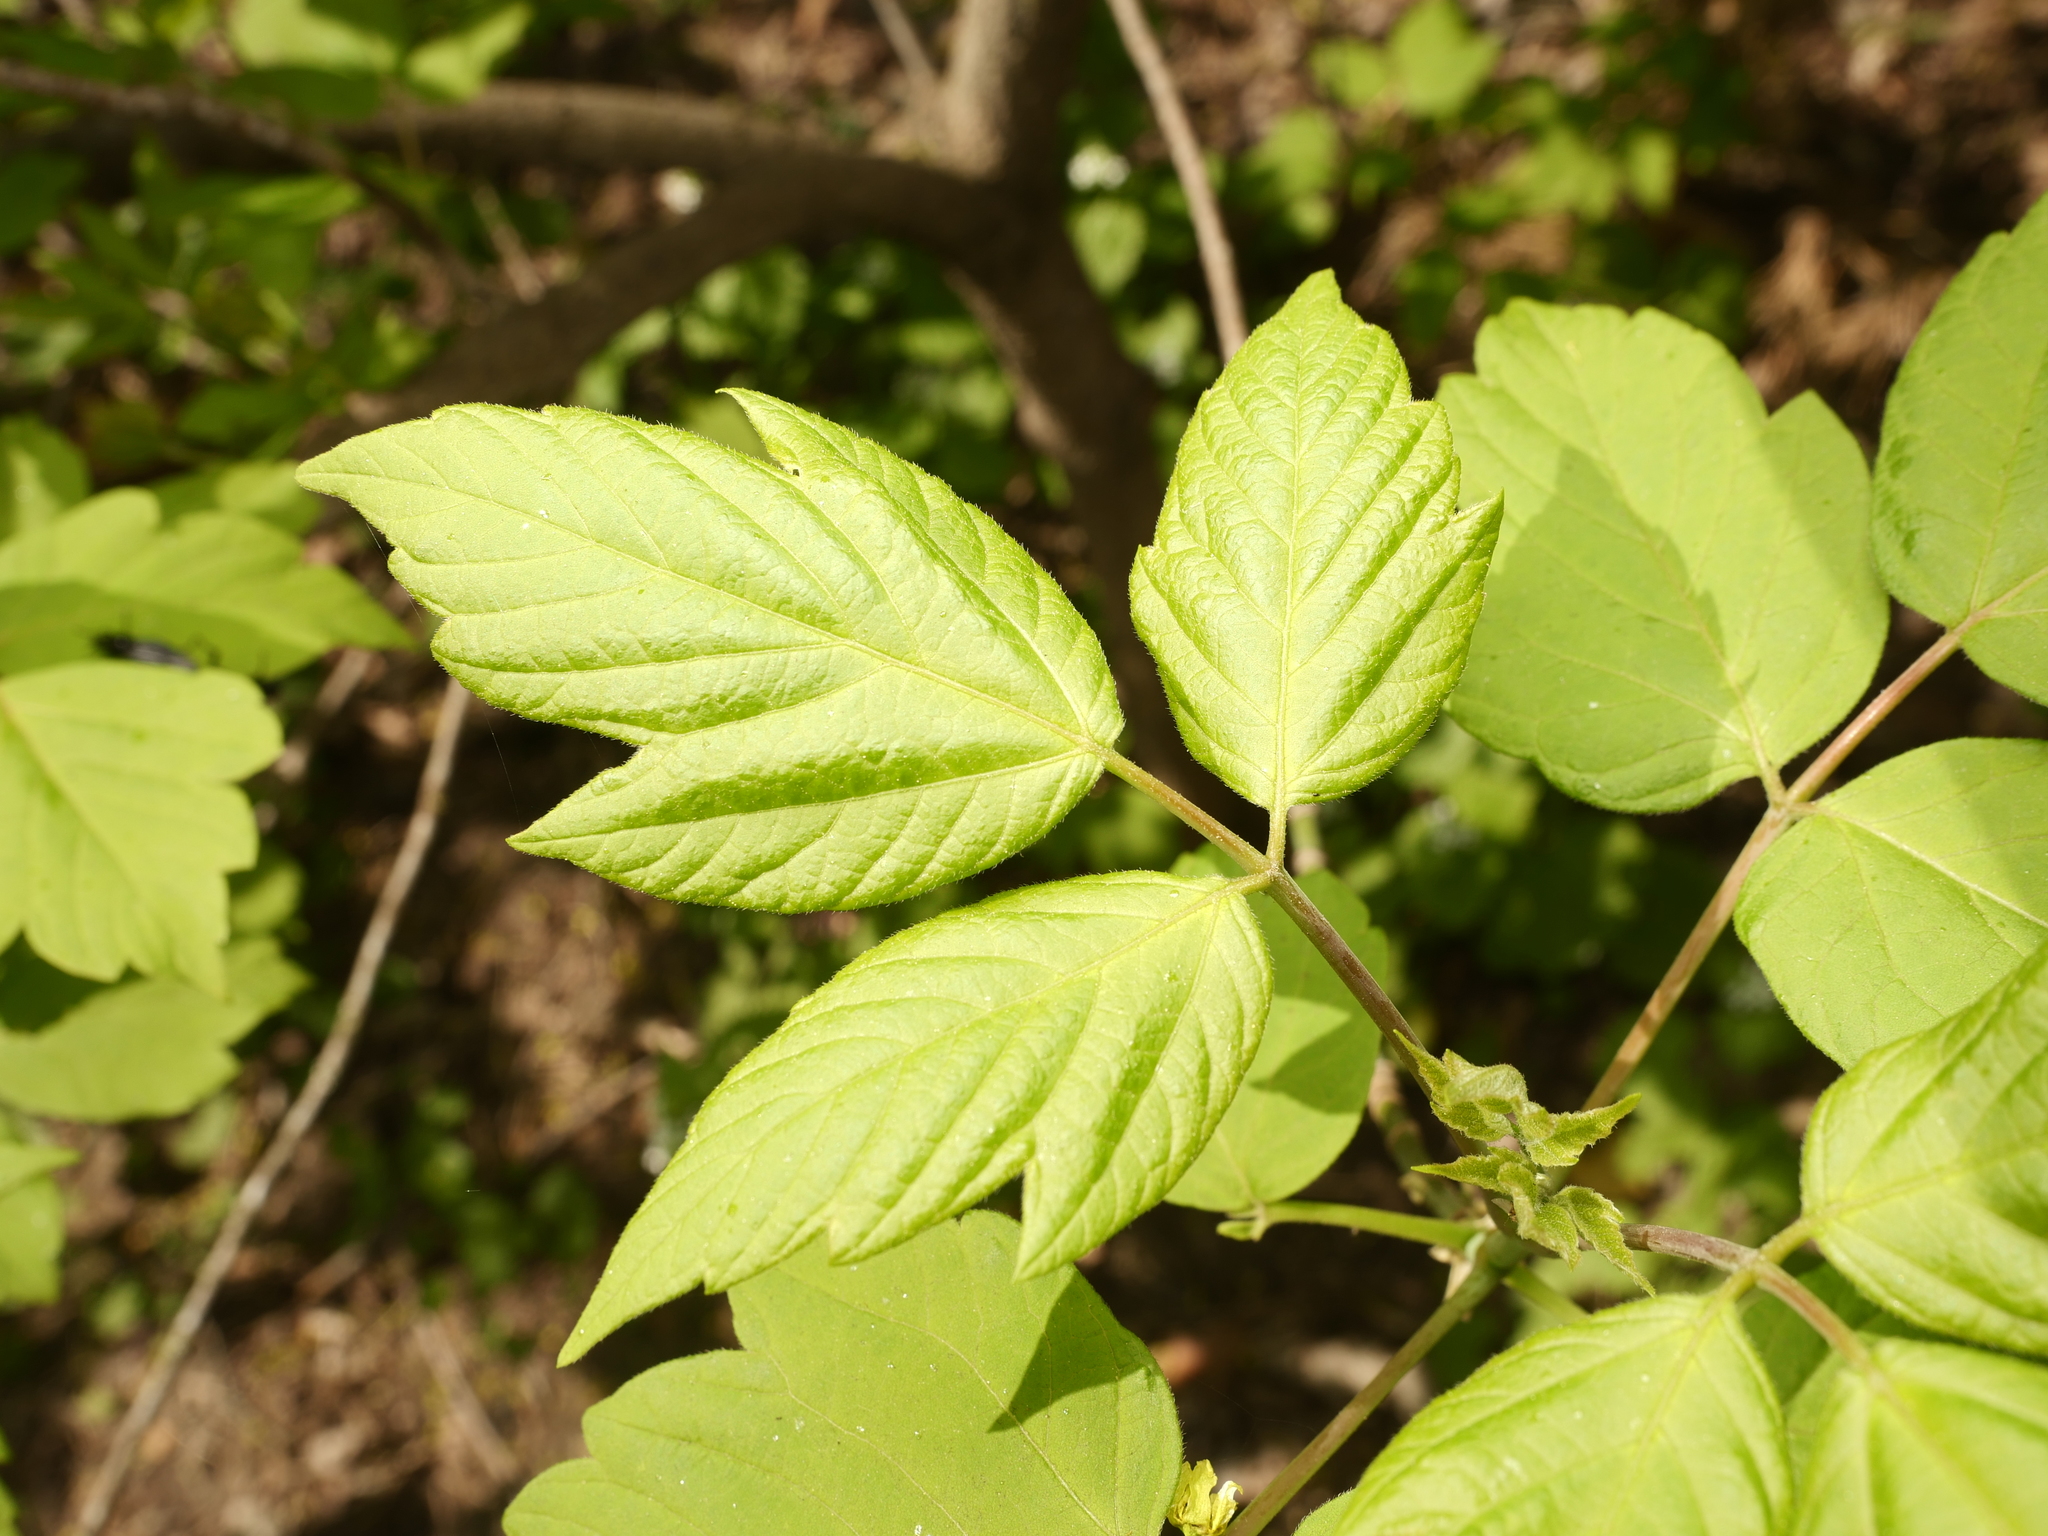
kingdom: Plantae
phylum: Tracheophyta
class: Magnoliopsida
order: Sapindales
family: Sapindaceae
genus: Acer
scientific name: Acer negundo
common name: Ashleaf maple
